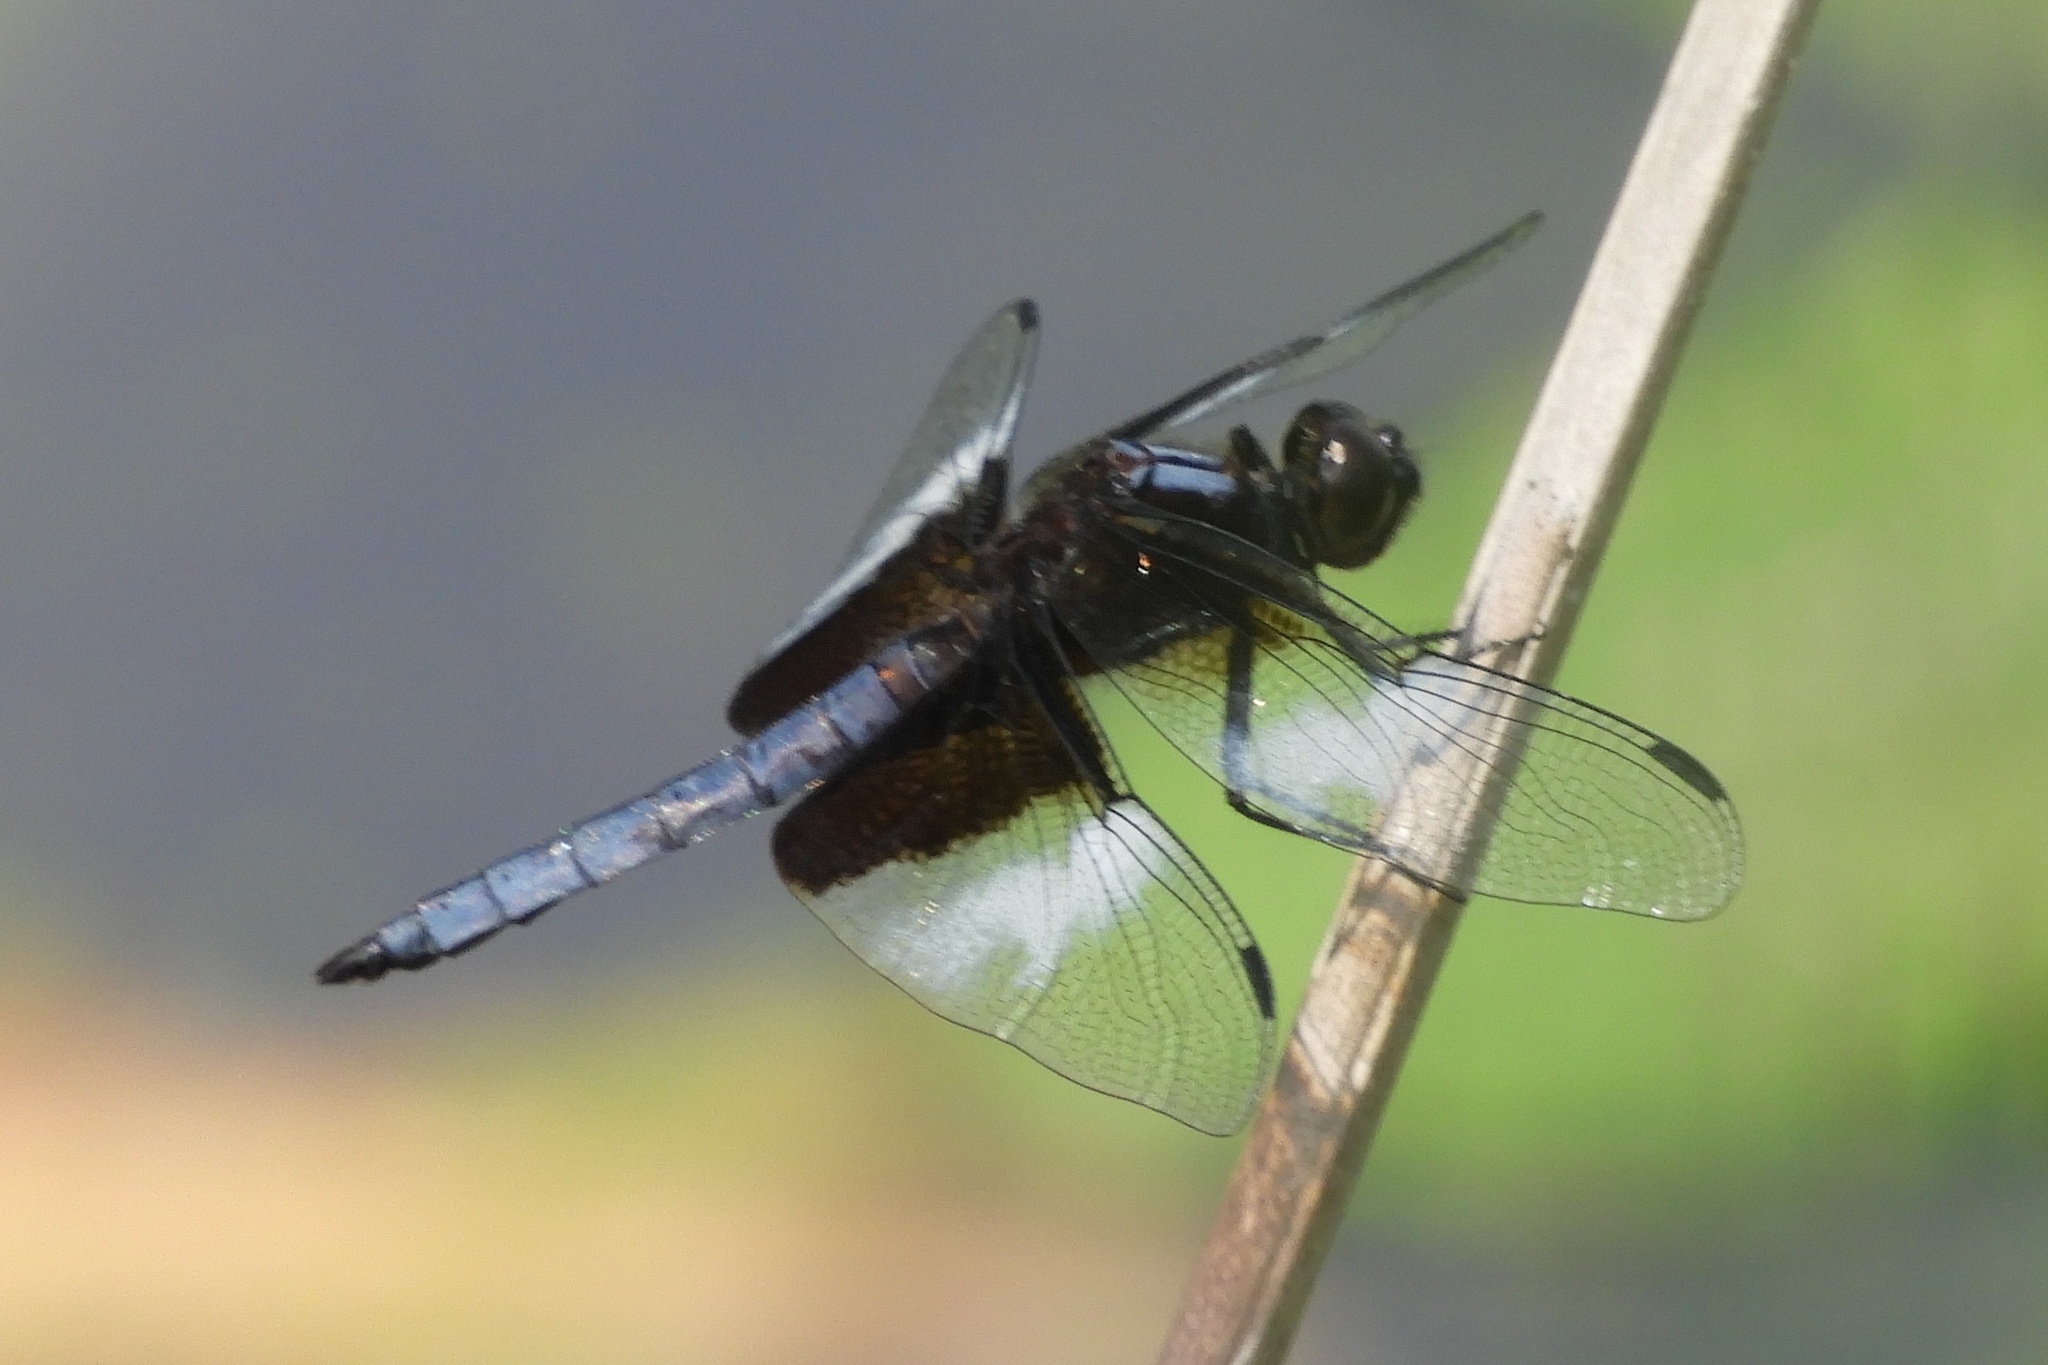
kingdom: Animalia
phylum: Arthropoda
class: Insecta
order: Odonata
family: Libellulidae
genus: Libellula
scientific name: Libellula luctuosa
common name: Widow skimmer
